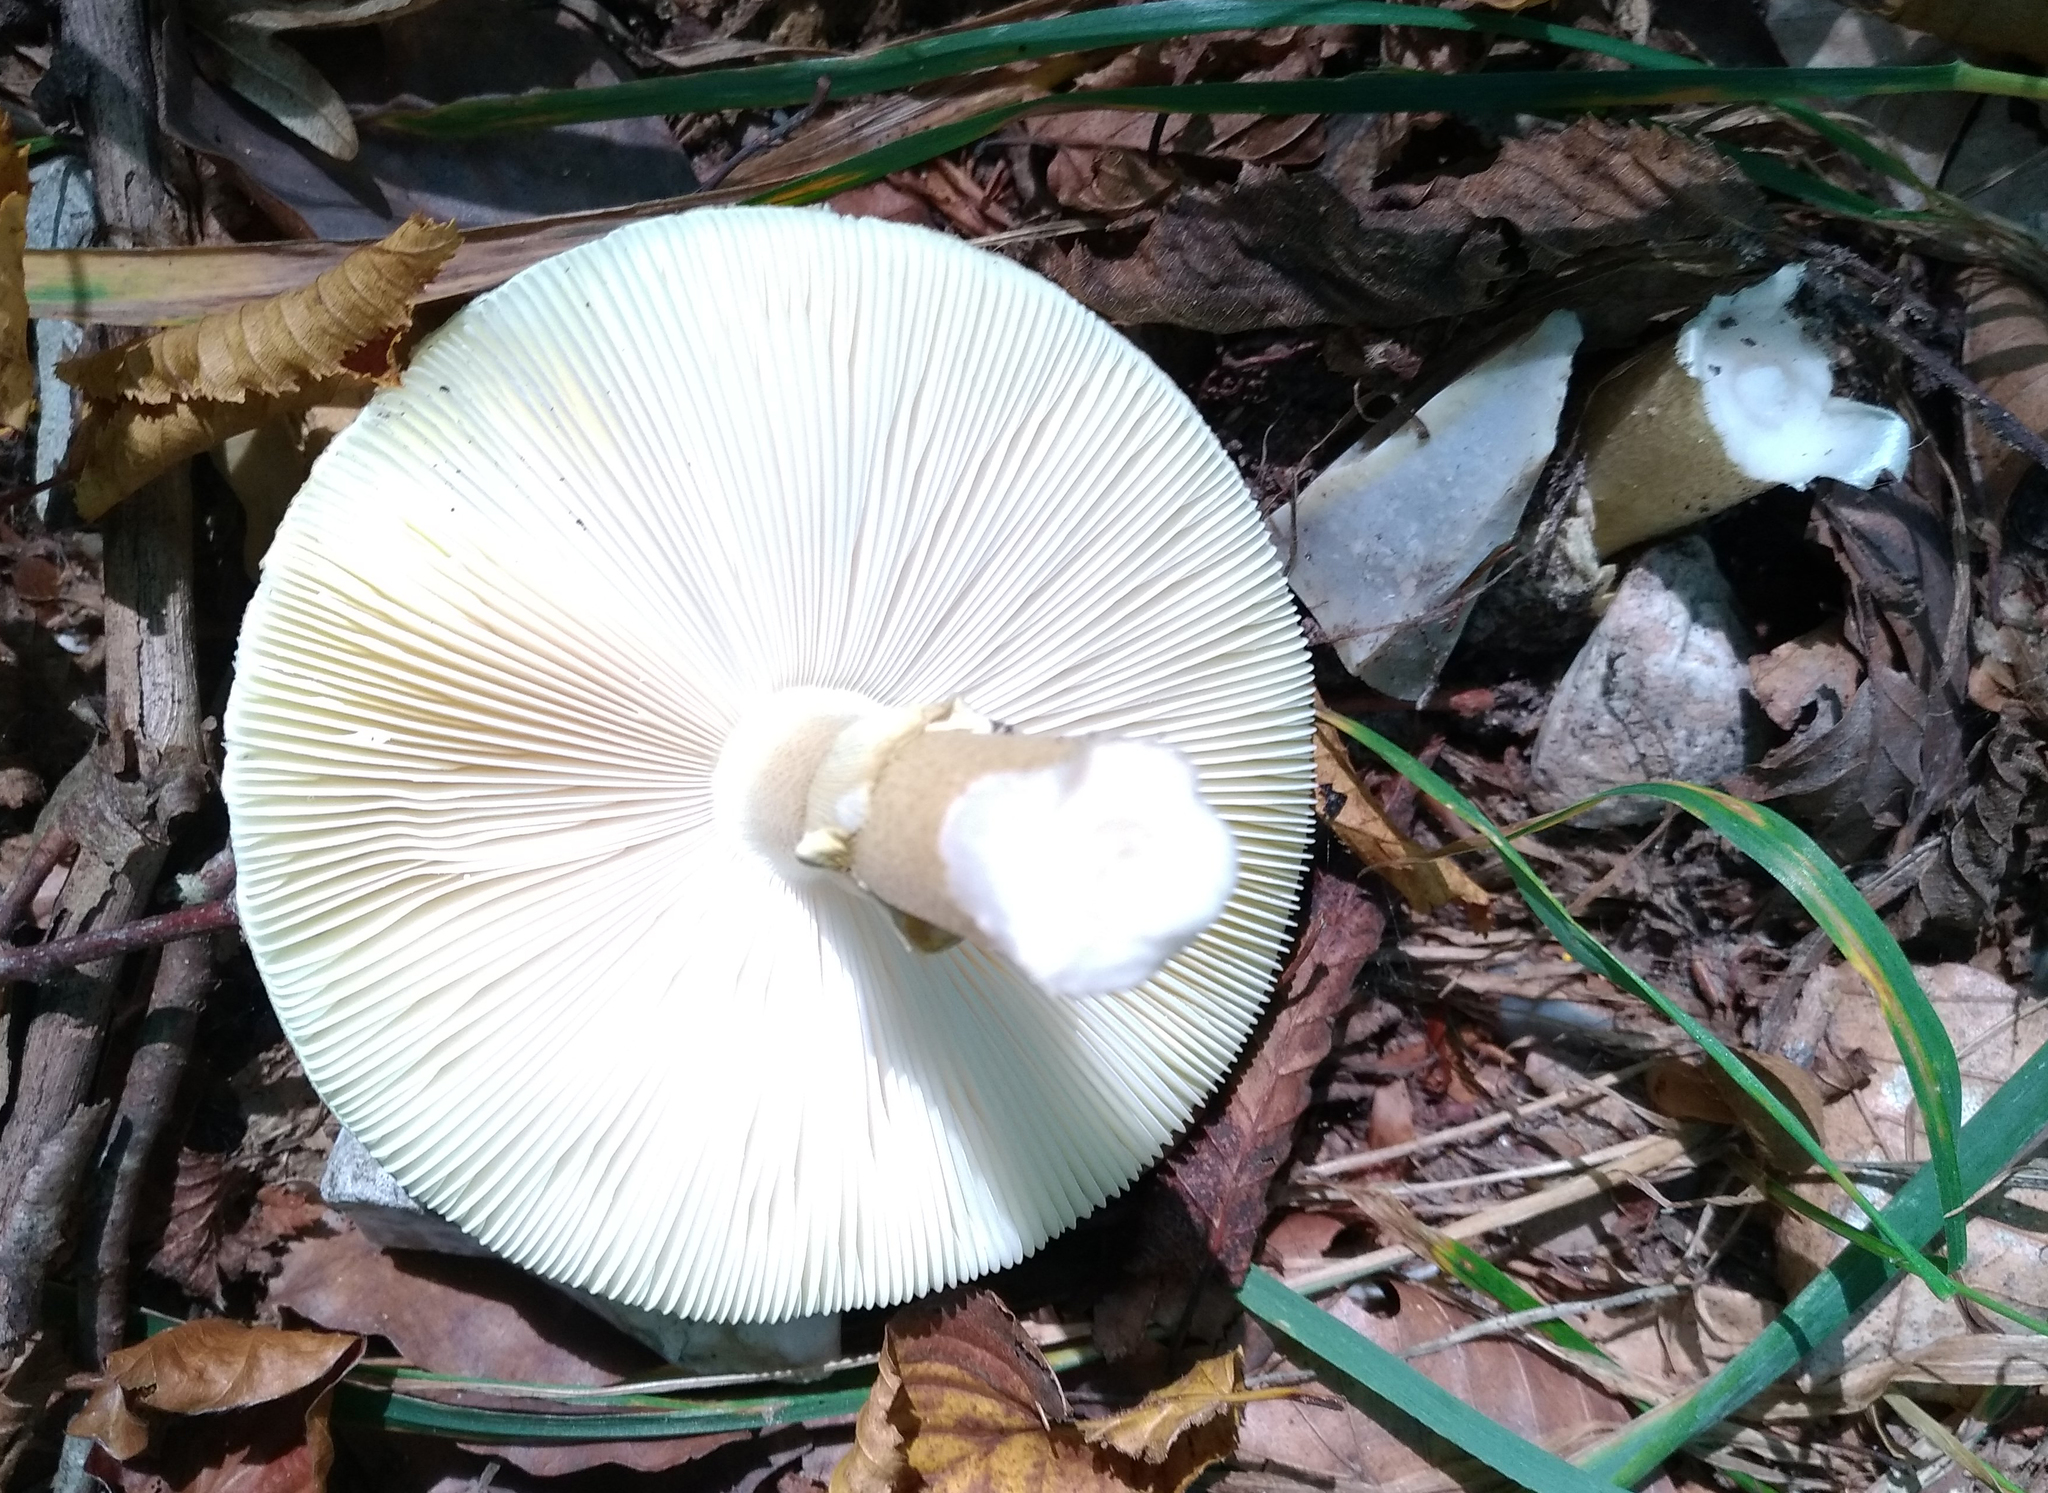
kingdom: Fungi
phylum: Basidiomycota
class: Agaricomycetes
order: Agaricales
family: Amanitaceae
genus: Amanita
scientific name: Amanita phalloides
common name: Death cap
